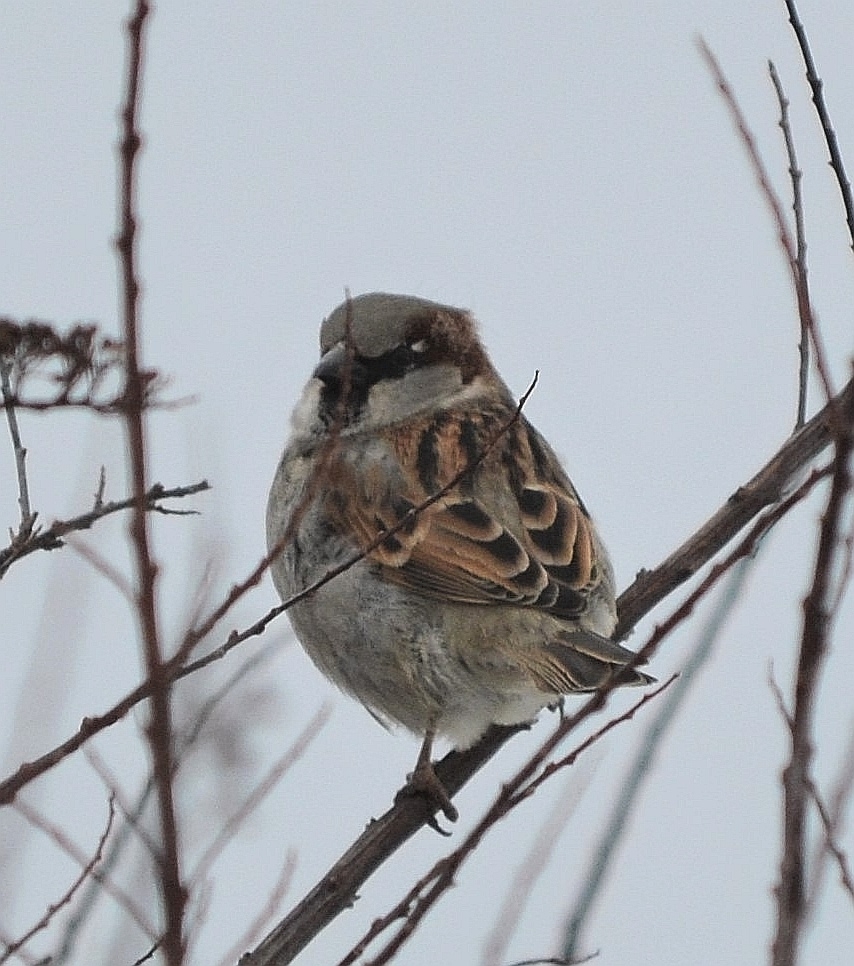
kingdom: Animalia
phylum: Chordata
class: Aves
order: Passeriformes
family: Passeridae
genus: Passer
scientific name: Passer domesticus
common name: House sparrow
